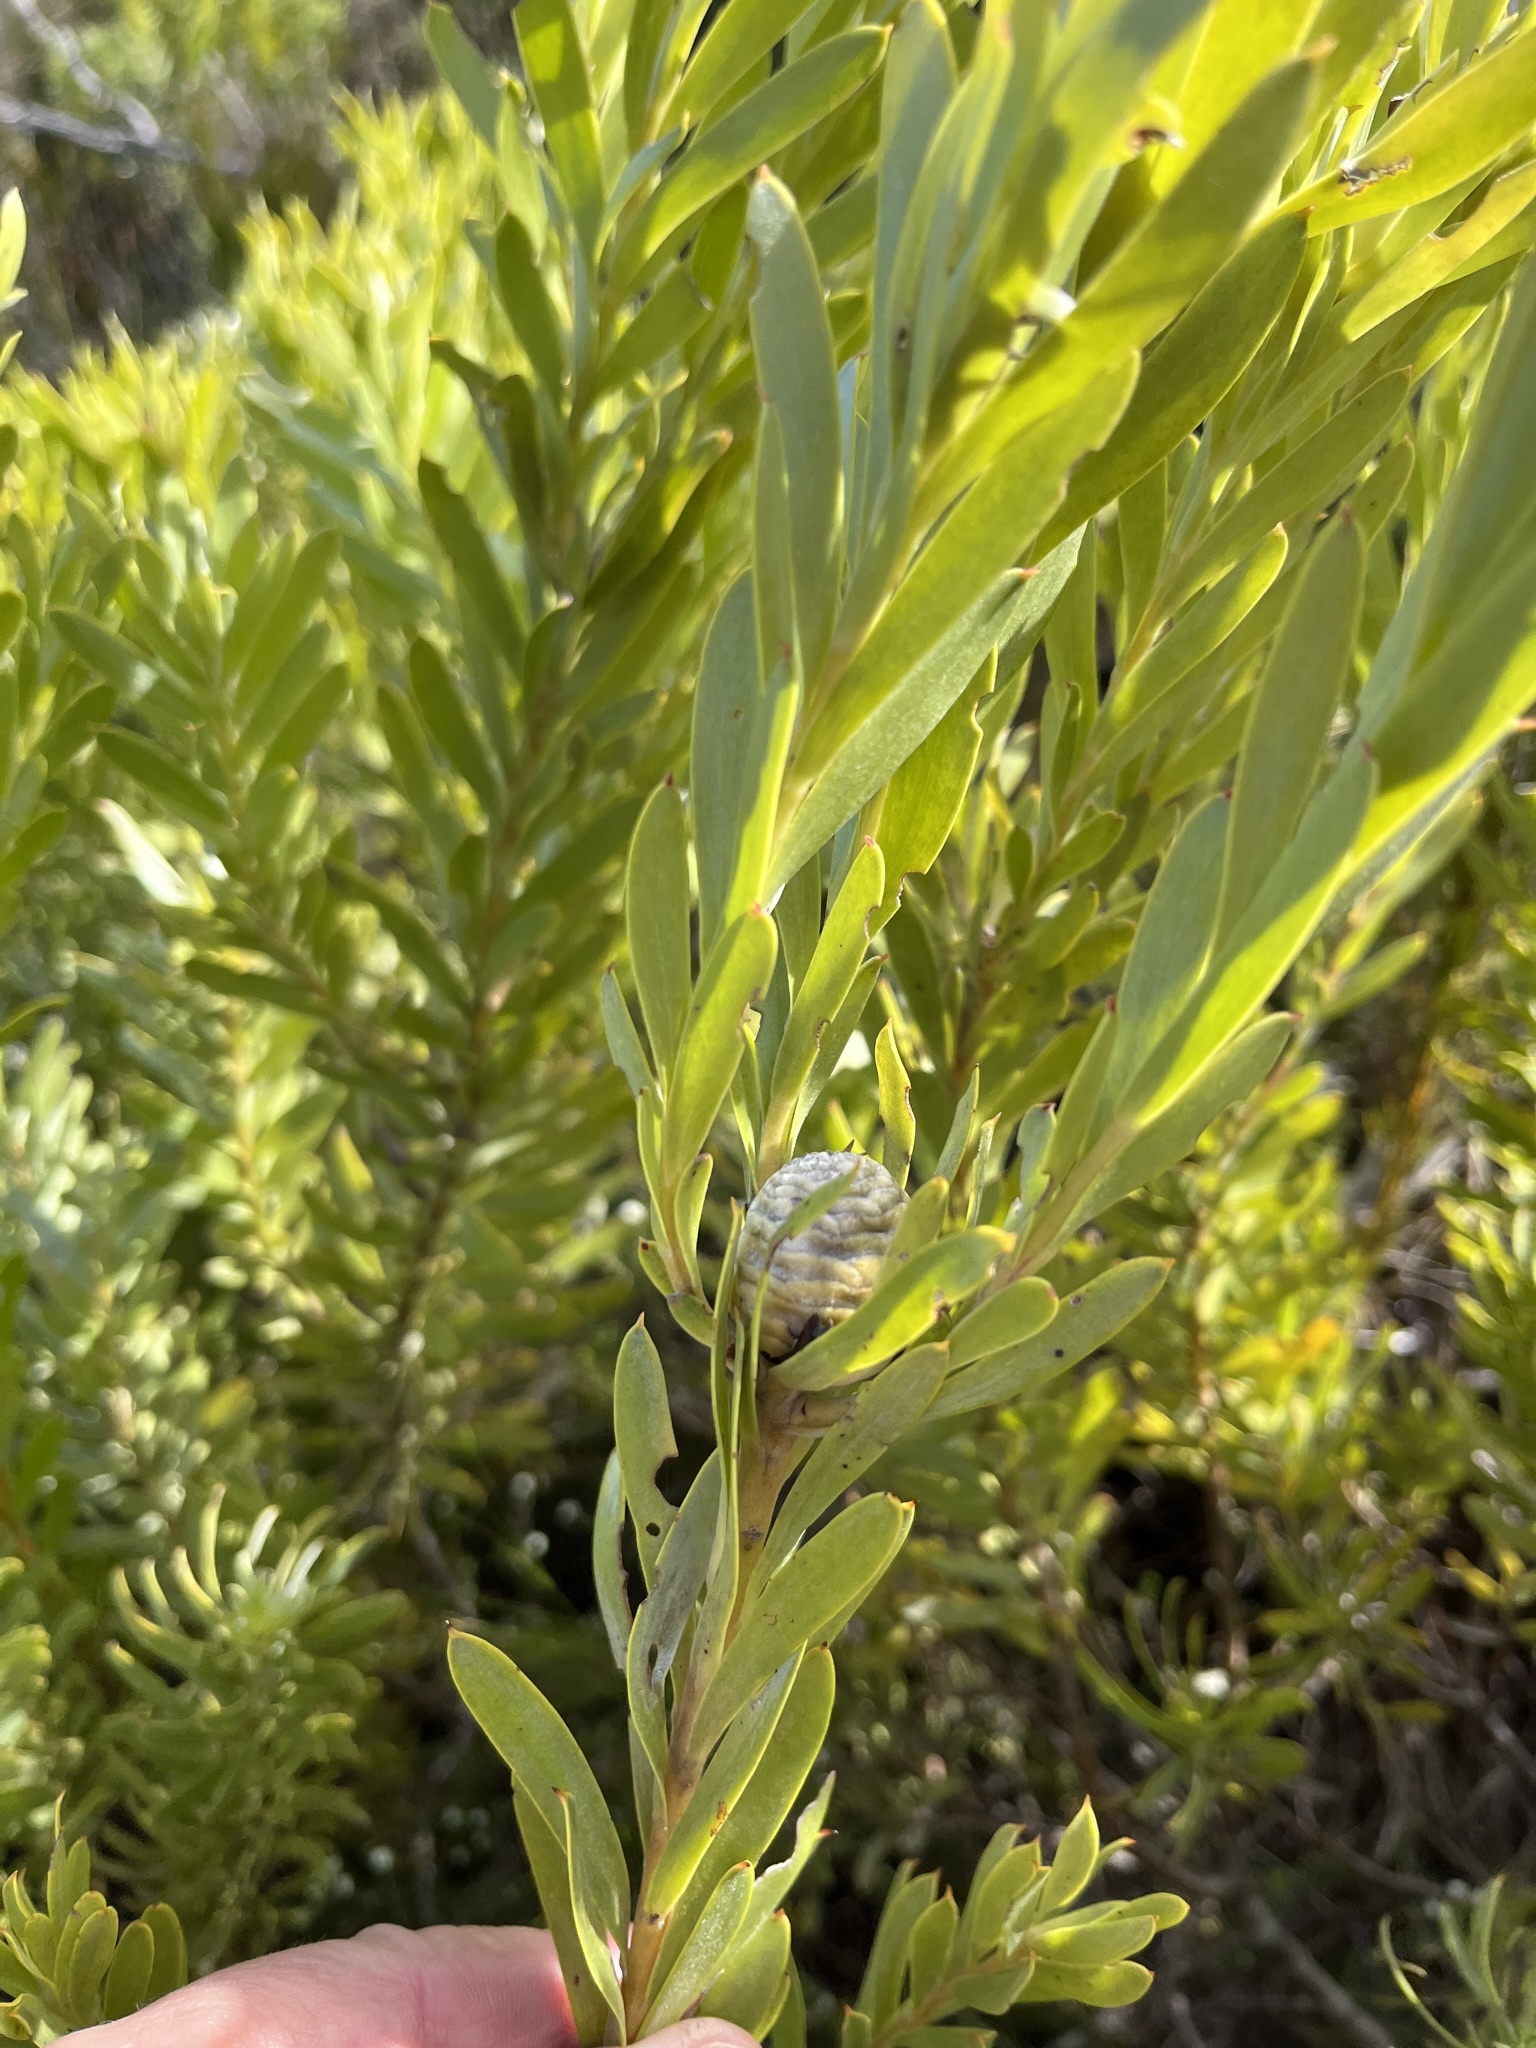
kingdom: Plantae
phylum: Tracheophyta
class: Magnoliopsida
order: Proteales
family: Proteaceae
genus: Leucadendron
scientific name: Leucadendron meridianum
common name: Limestone conebush
